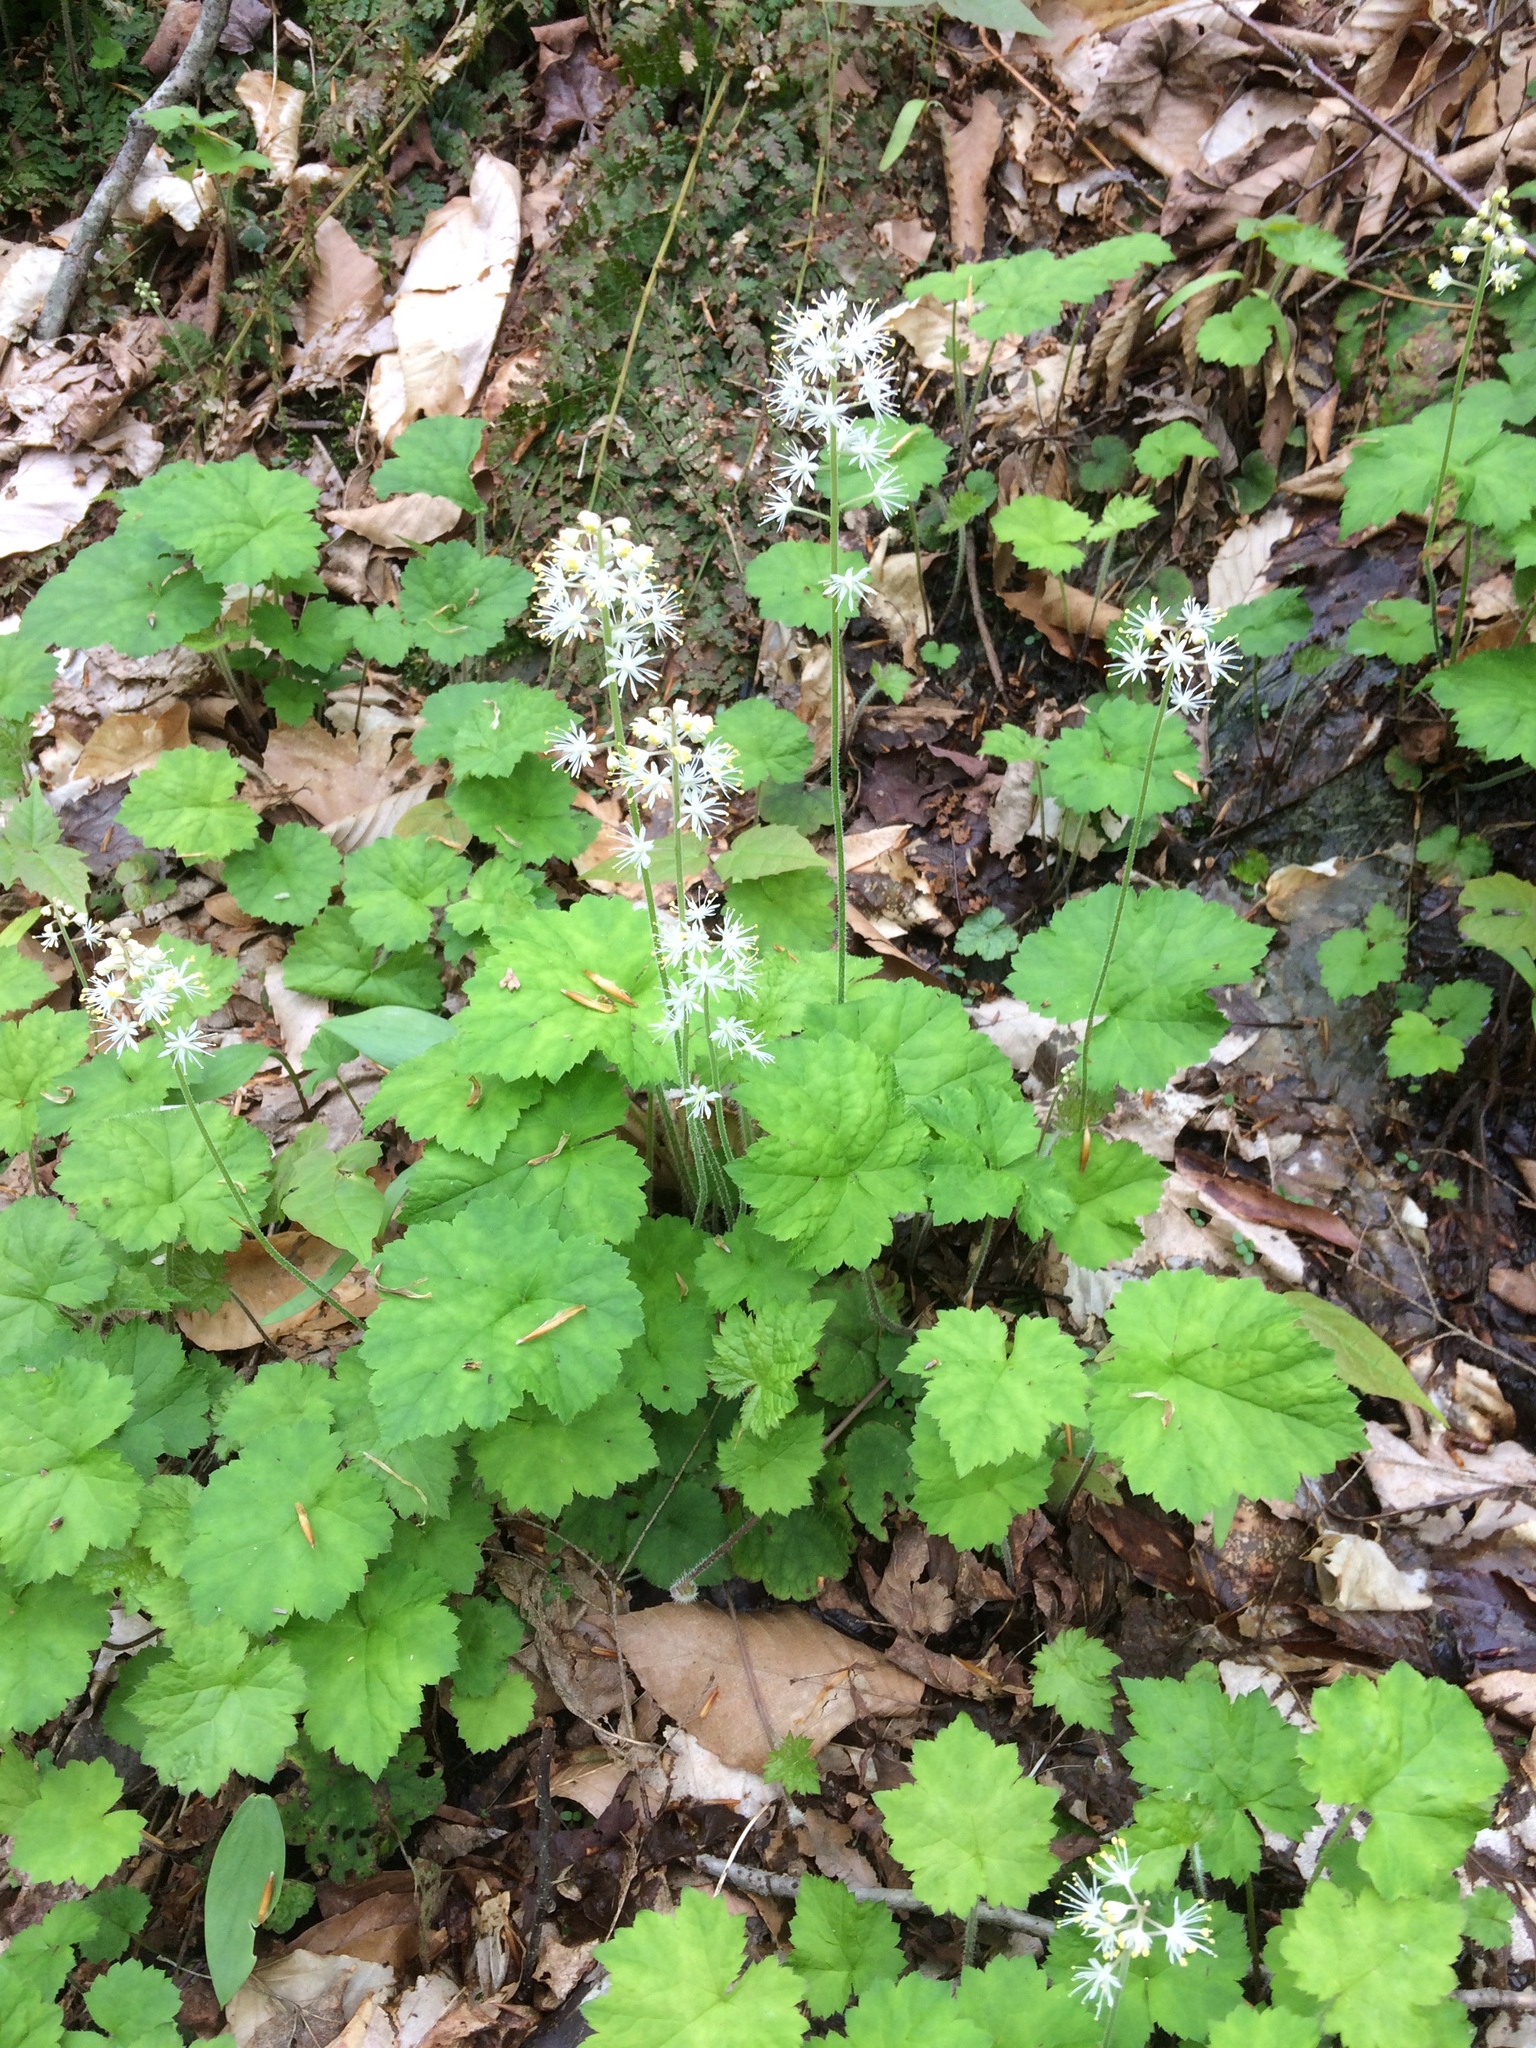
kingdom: Plantae
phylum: Tracheophyta
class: Magnoliopsida
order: Saxifragales
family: Saxifragaceae
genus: Tiarella
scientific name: Tiarella stolonifera
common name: Stoloniferous foamflower
